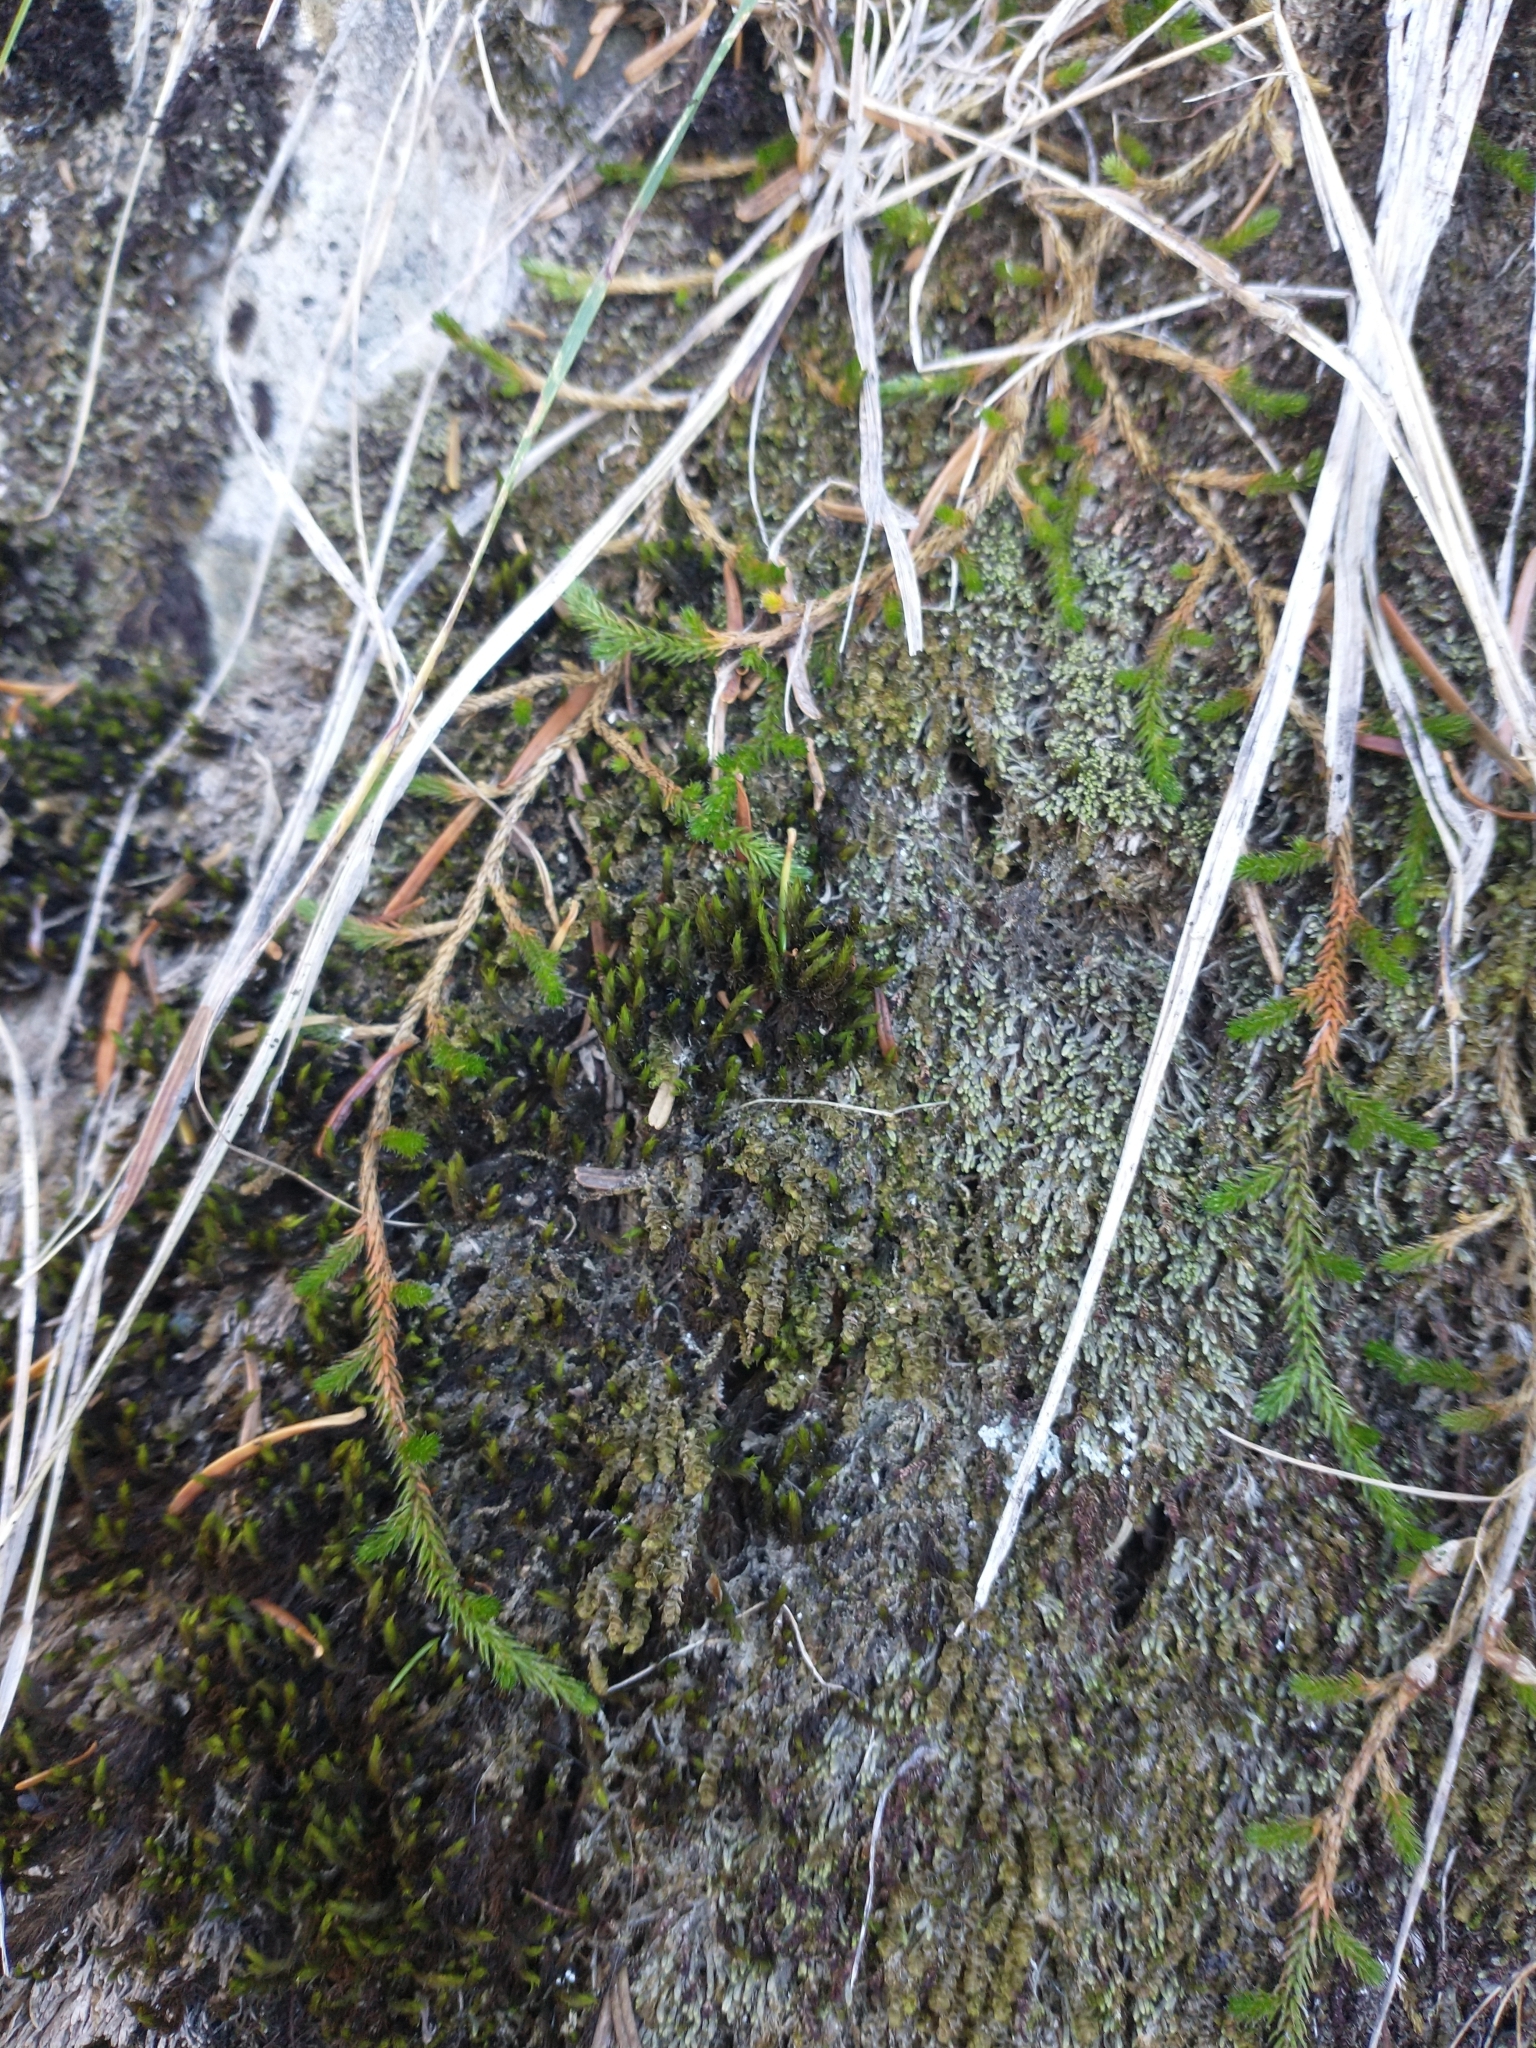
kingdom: Plantae
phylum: Tracheophyta
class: Lycopodiopsida
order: Selaginellales
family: Selaginellaceae
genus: Selaginella
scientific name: Selaginella wallacei
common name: Wallace's selaginella
